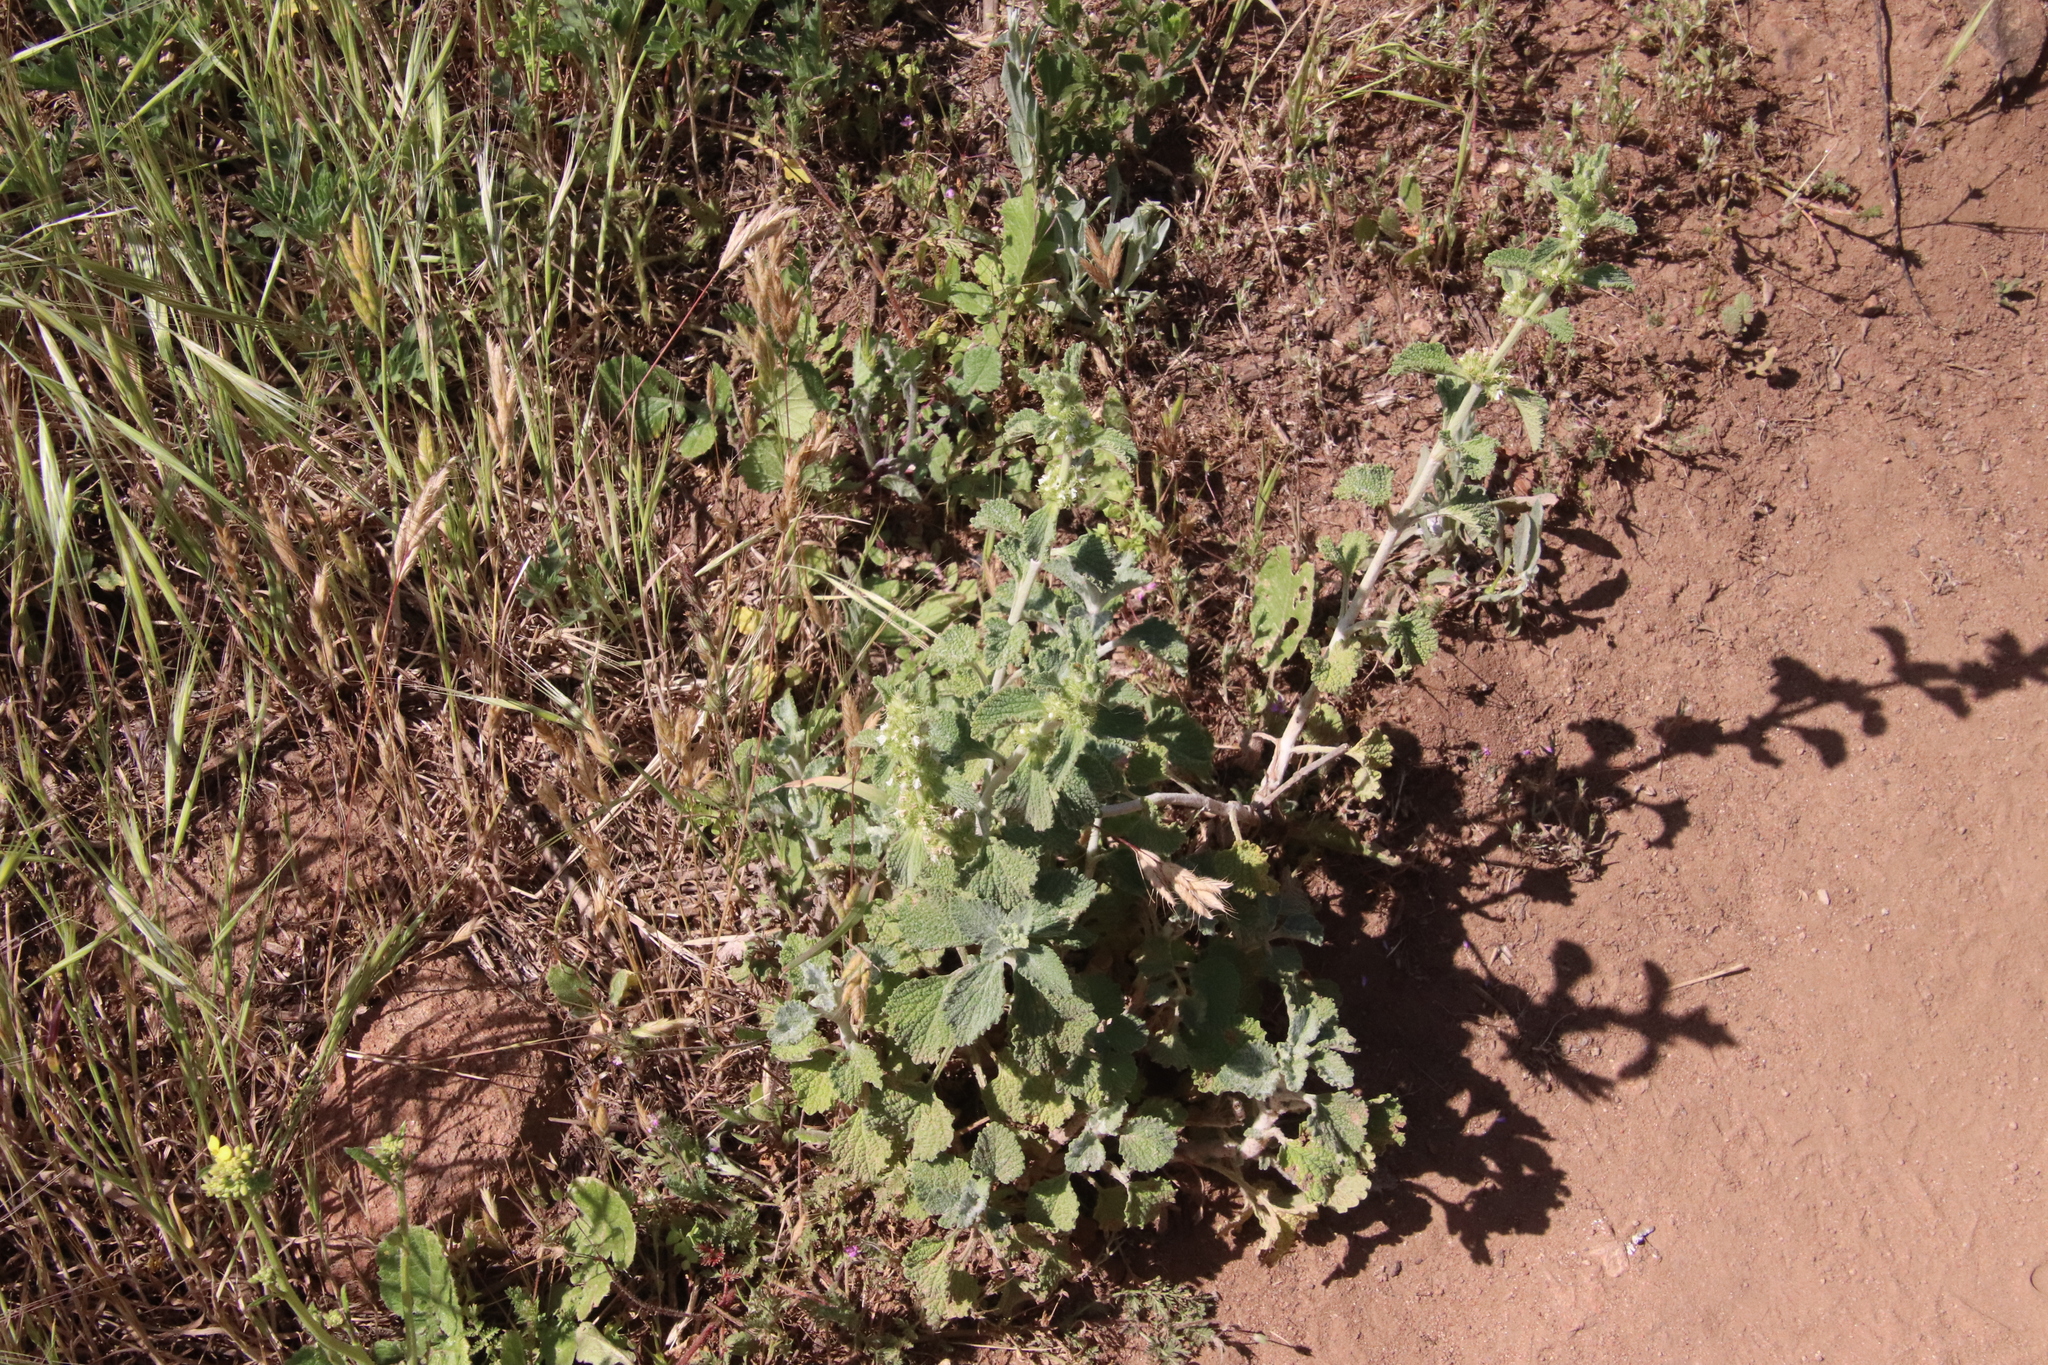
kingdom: Plantae
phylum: Tracheophyta
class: Magnoliopsida
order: Lamiales
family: Lamiaceae
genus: Marrubium
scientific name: Marrubium vulgare
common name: Horehound
